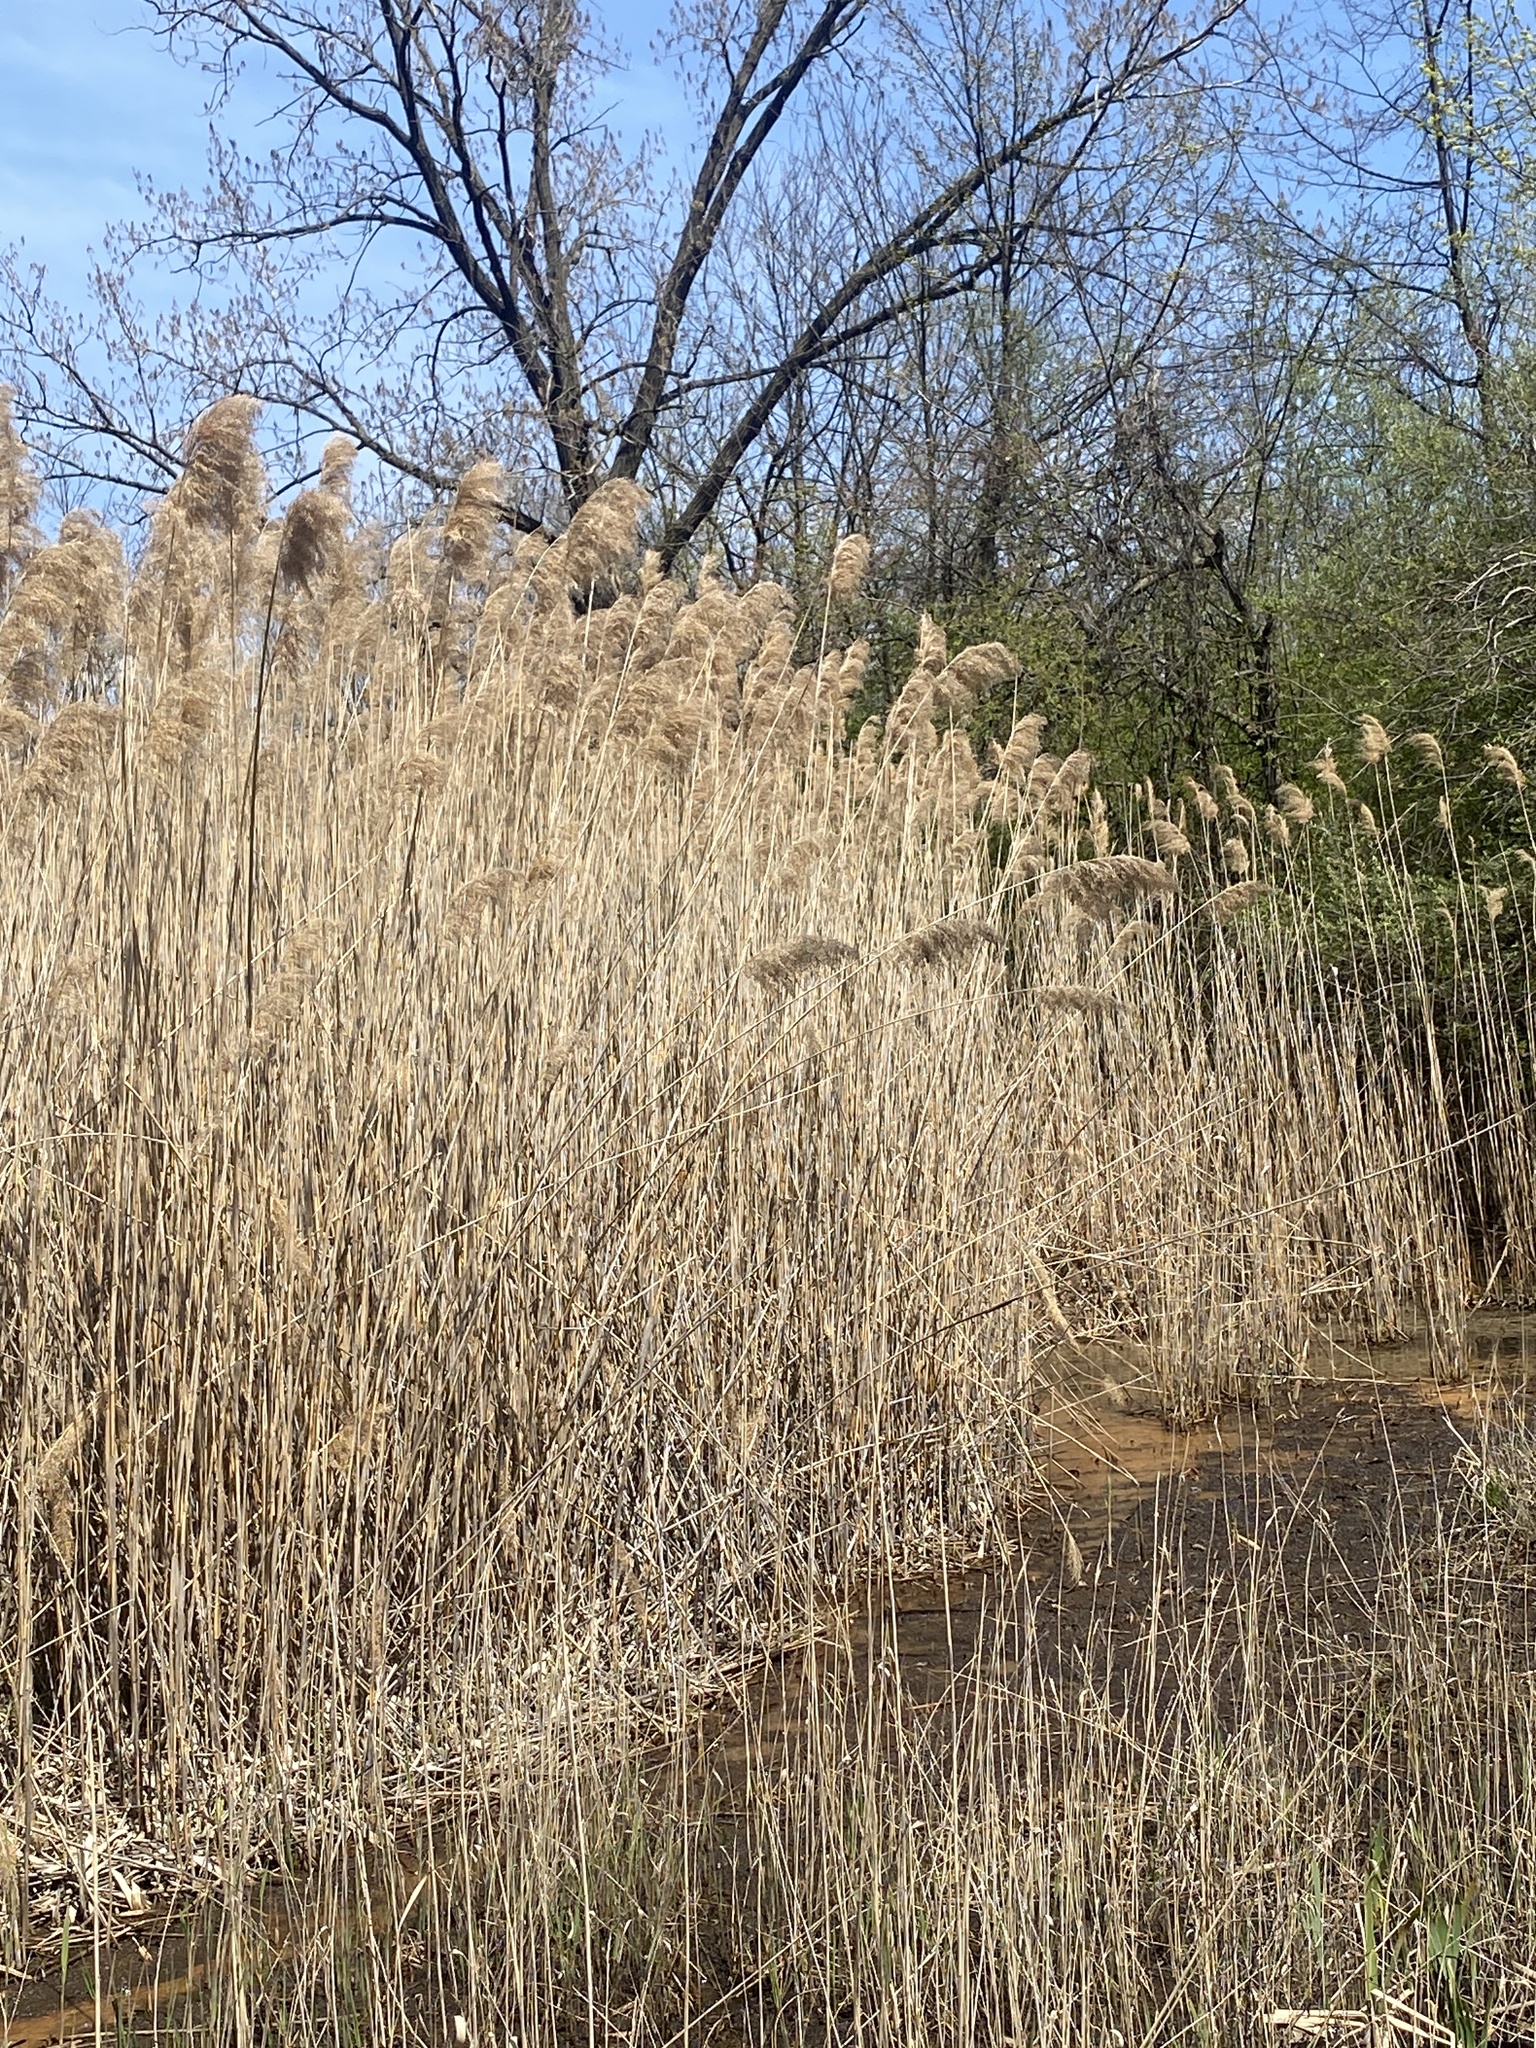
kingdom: Plantae
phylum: Tracheophyta
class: Liliopsida
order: Poales
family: Poaceae
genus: Phragmites
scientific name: Phragmites australis
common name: Common reed
